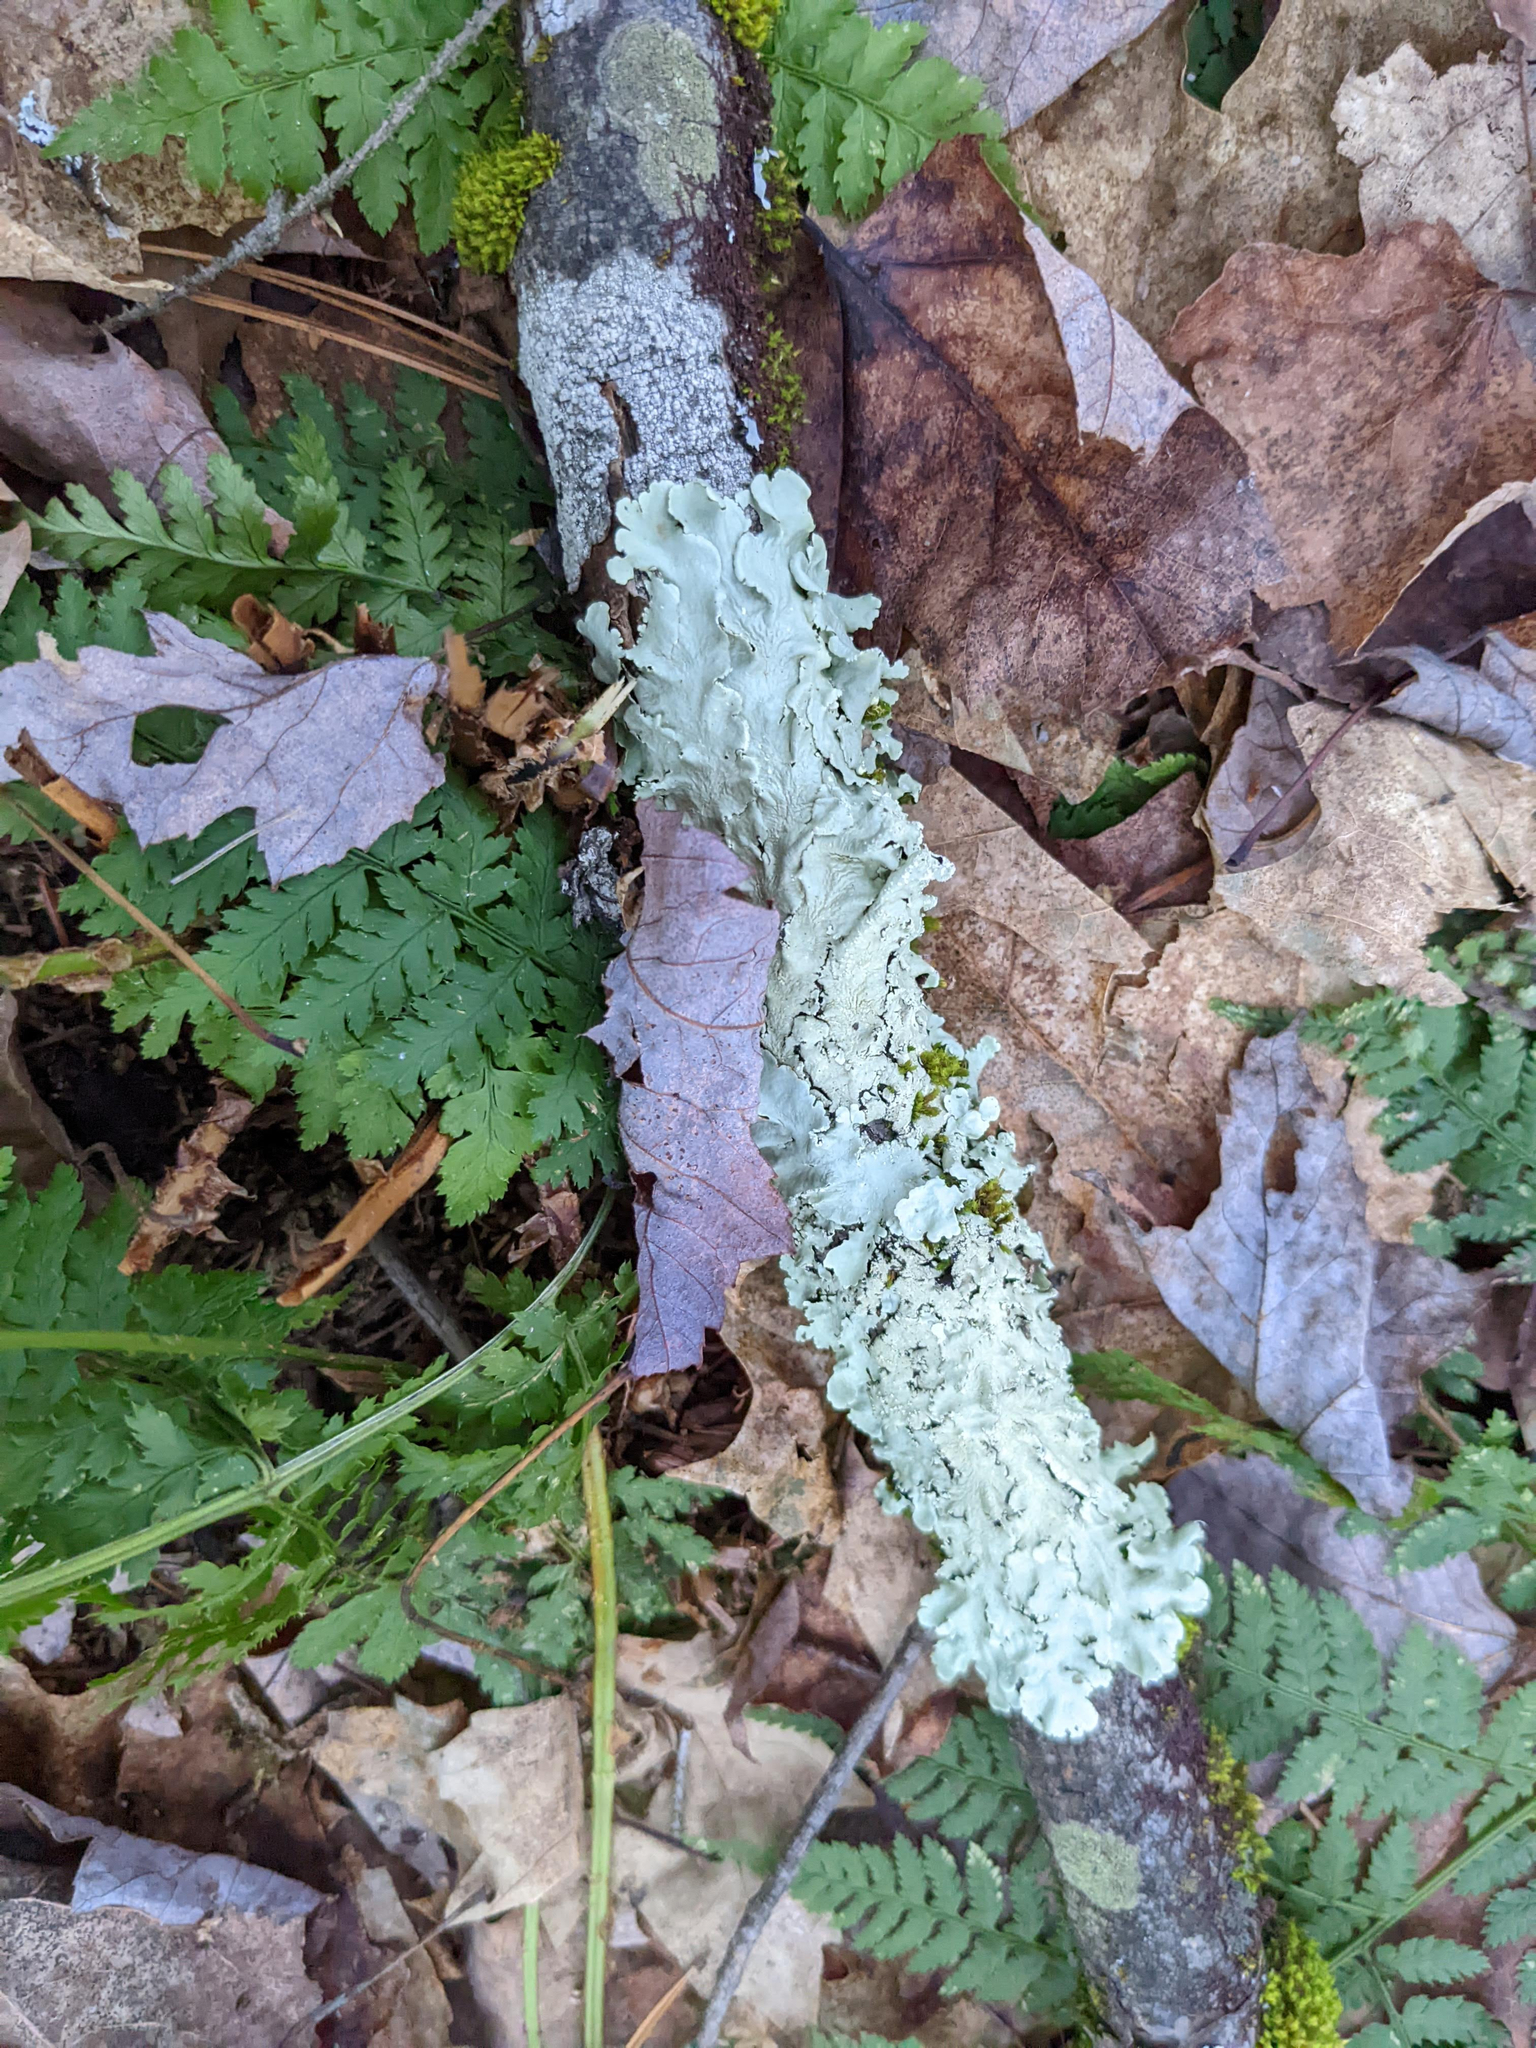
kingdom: Fungi
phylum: Ascomycota
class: Lecanoromycetes
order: Lecanorales
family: Parmeliaceae
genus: Flavoparmelia
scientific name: Flavoparmelia caperata
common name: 40-mile per hour lichen
